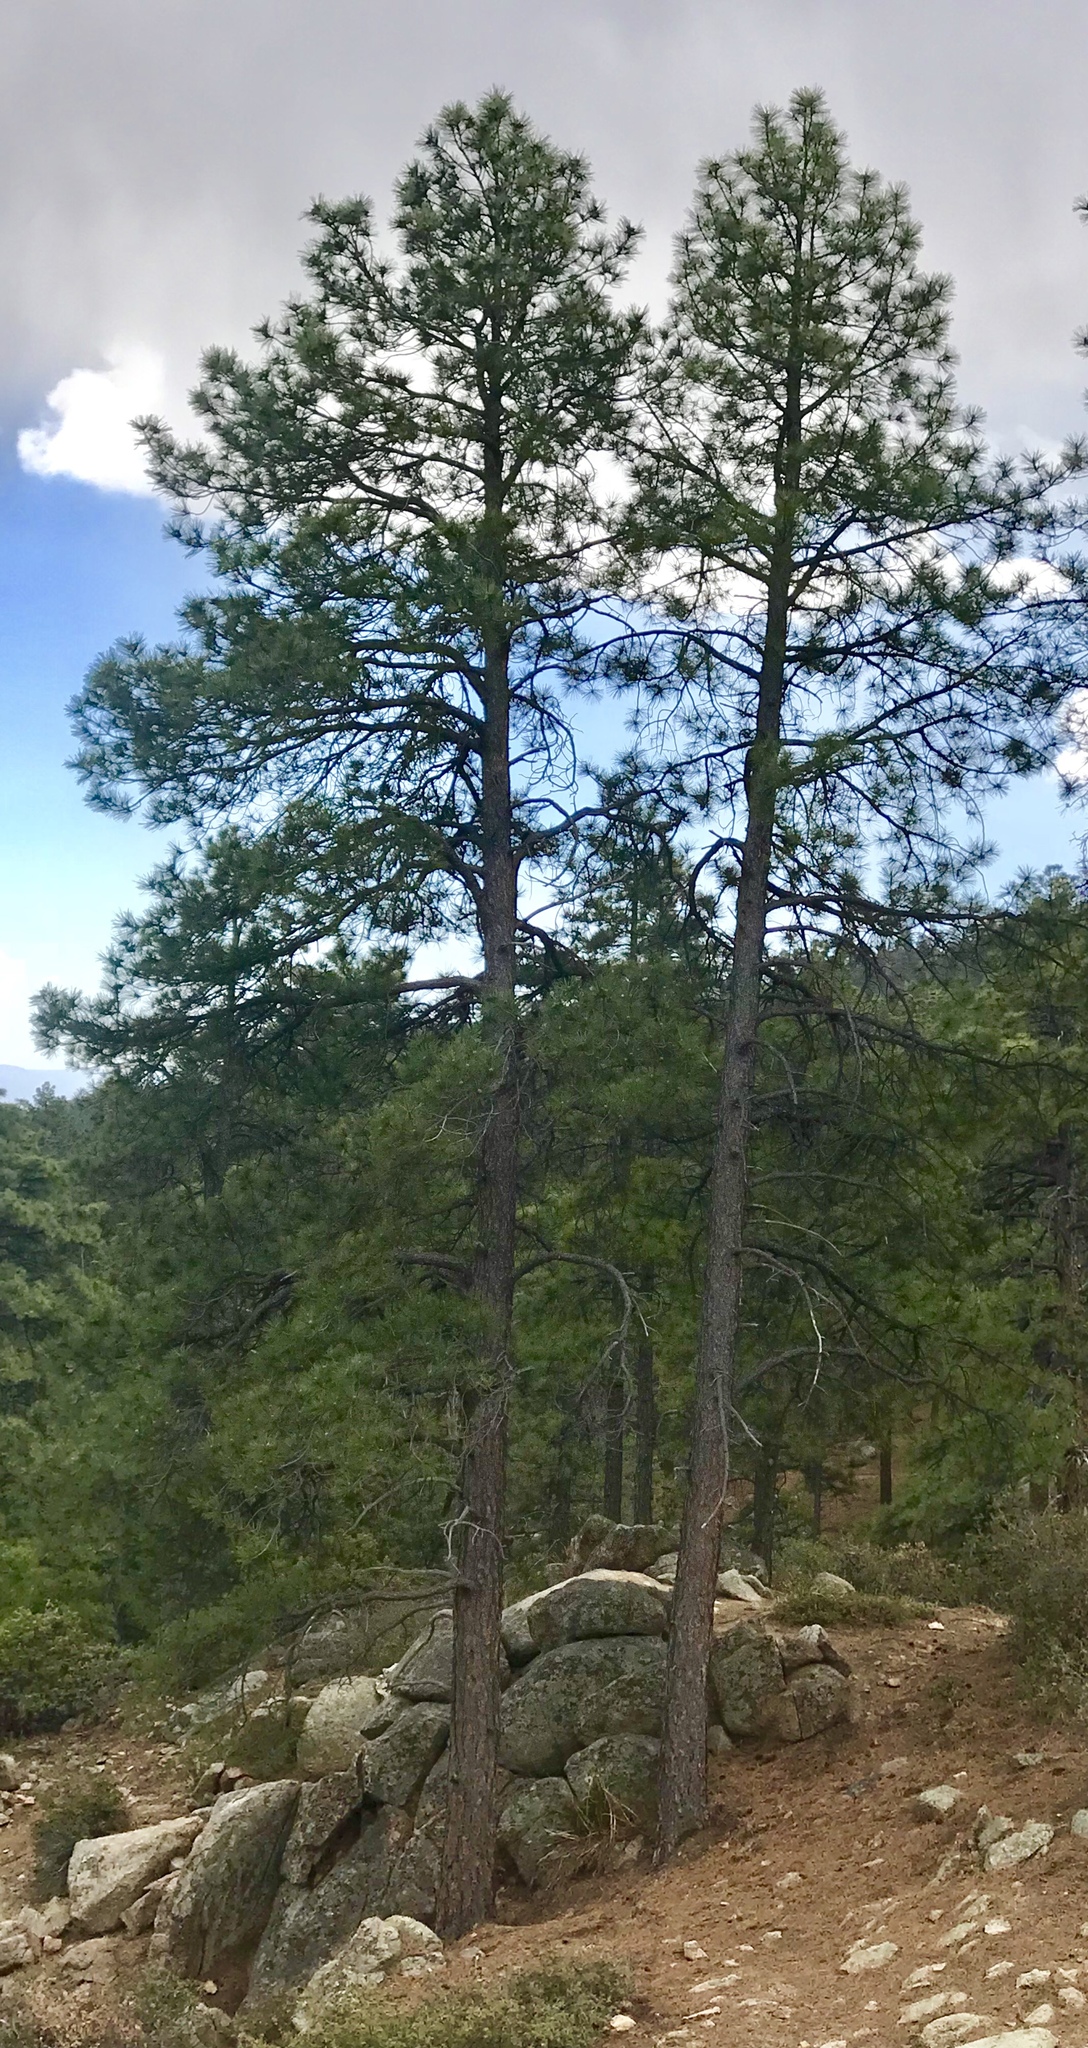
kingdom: Plantae
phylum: Tracheophyta
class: Pinopsida
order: Pinales
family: Pinaceae
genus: Pinus
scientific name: Pinus ponderosa
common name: Western yellow-pine
